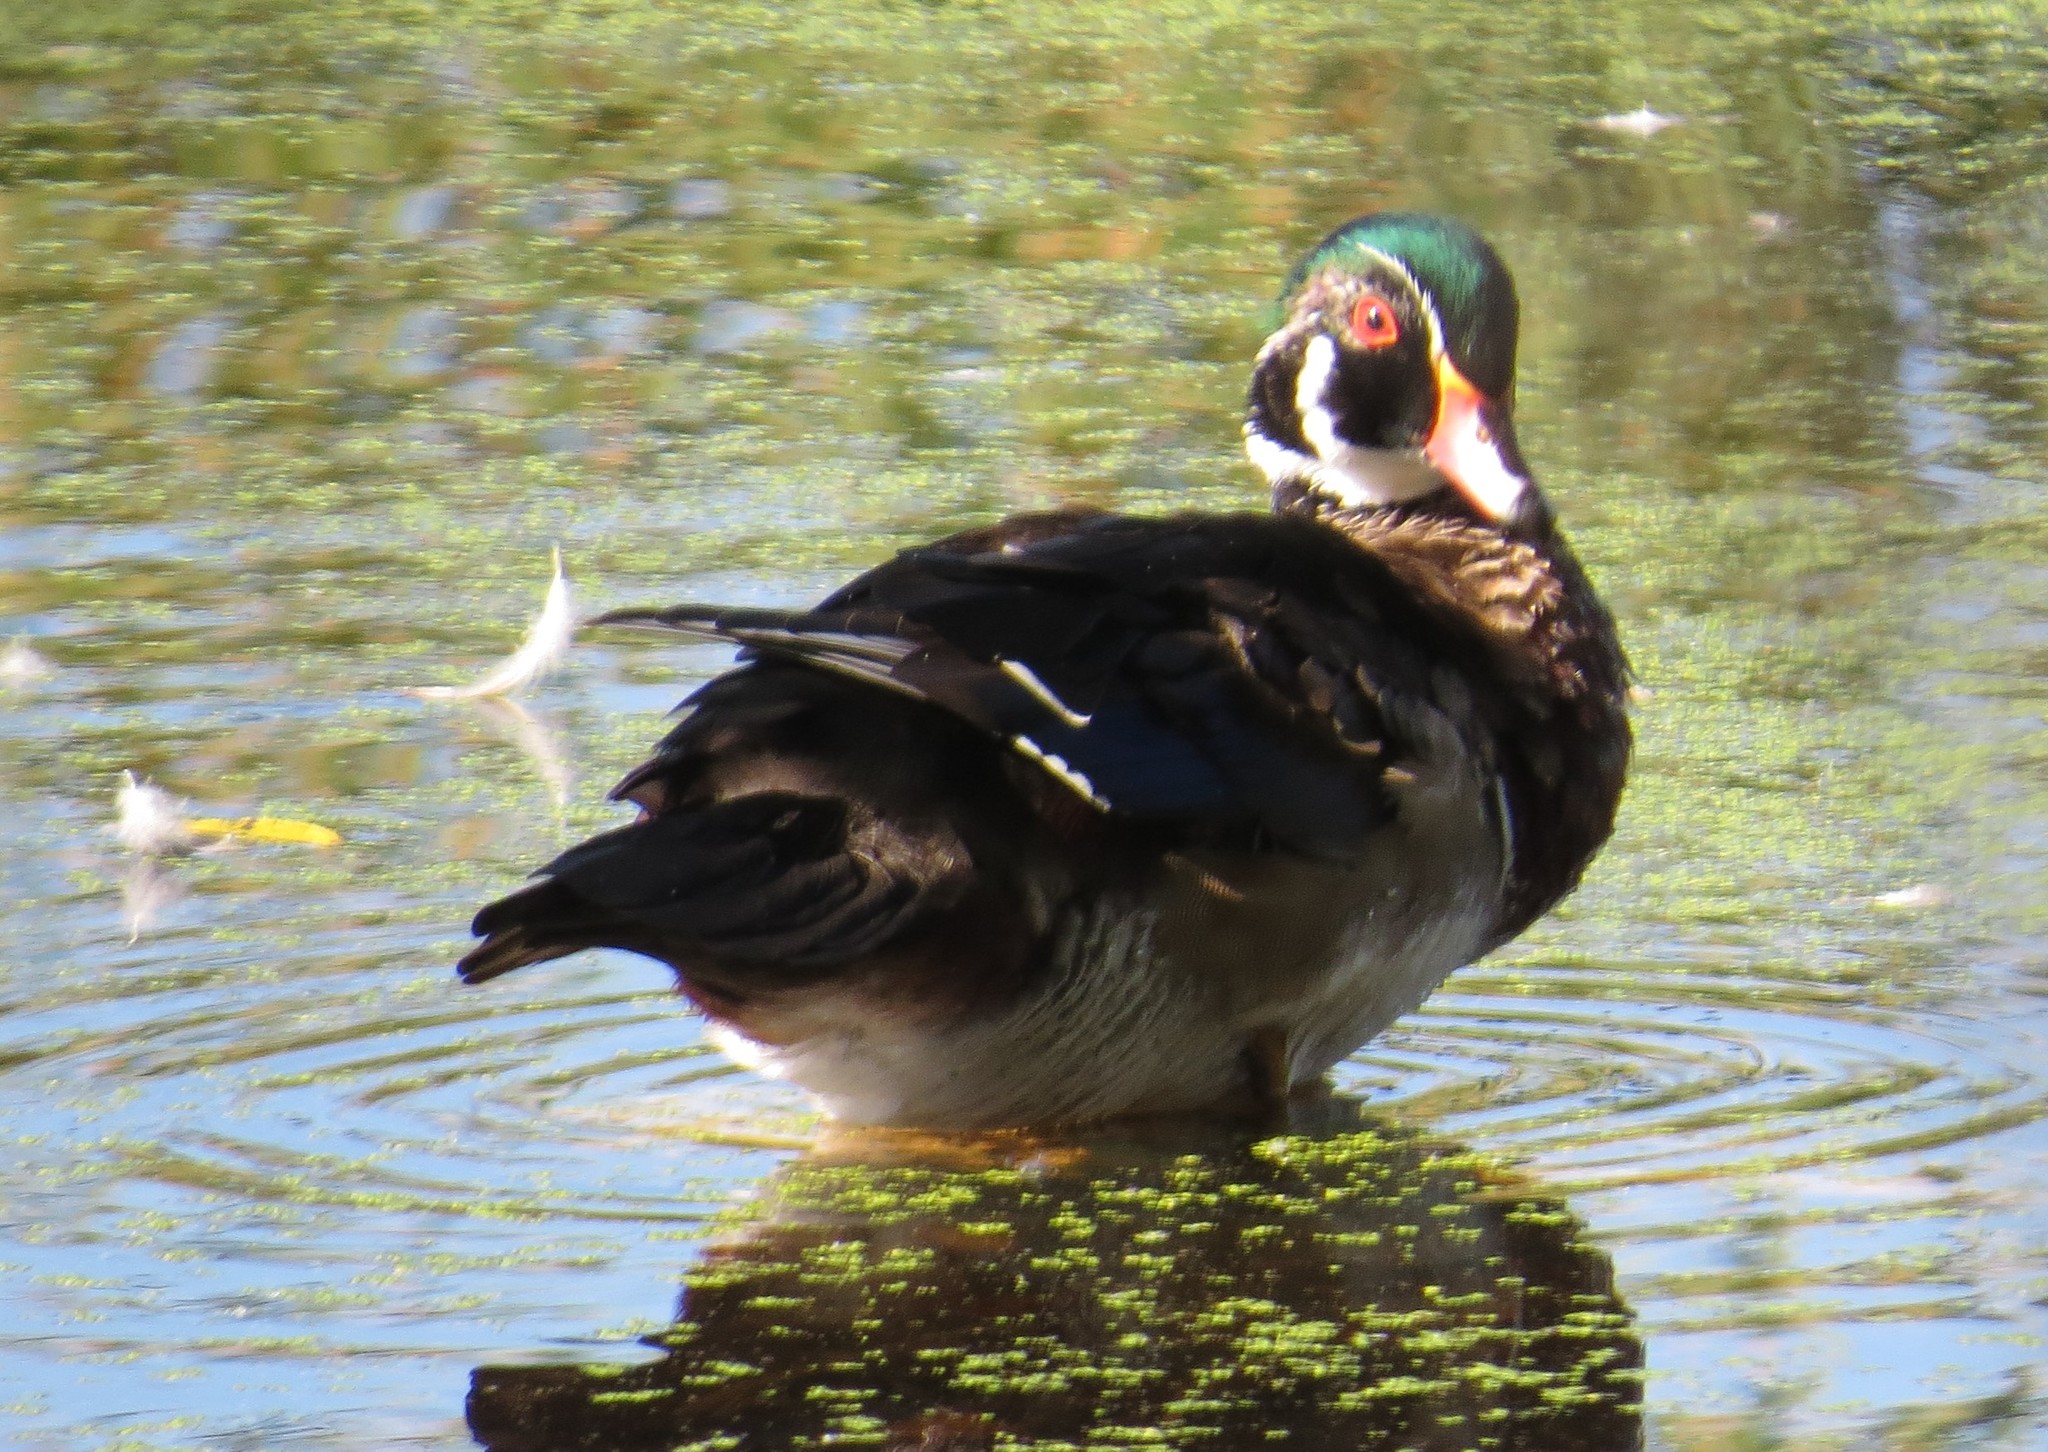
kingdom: Animalia
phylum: Chordata
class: Aves
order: Anseriformes
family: Anatidae
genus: Aix
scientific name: Aix sponsa
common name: Wood duck
